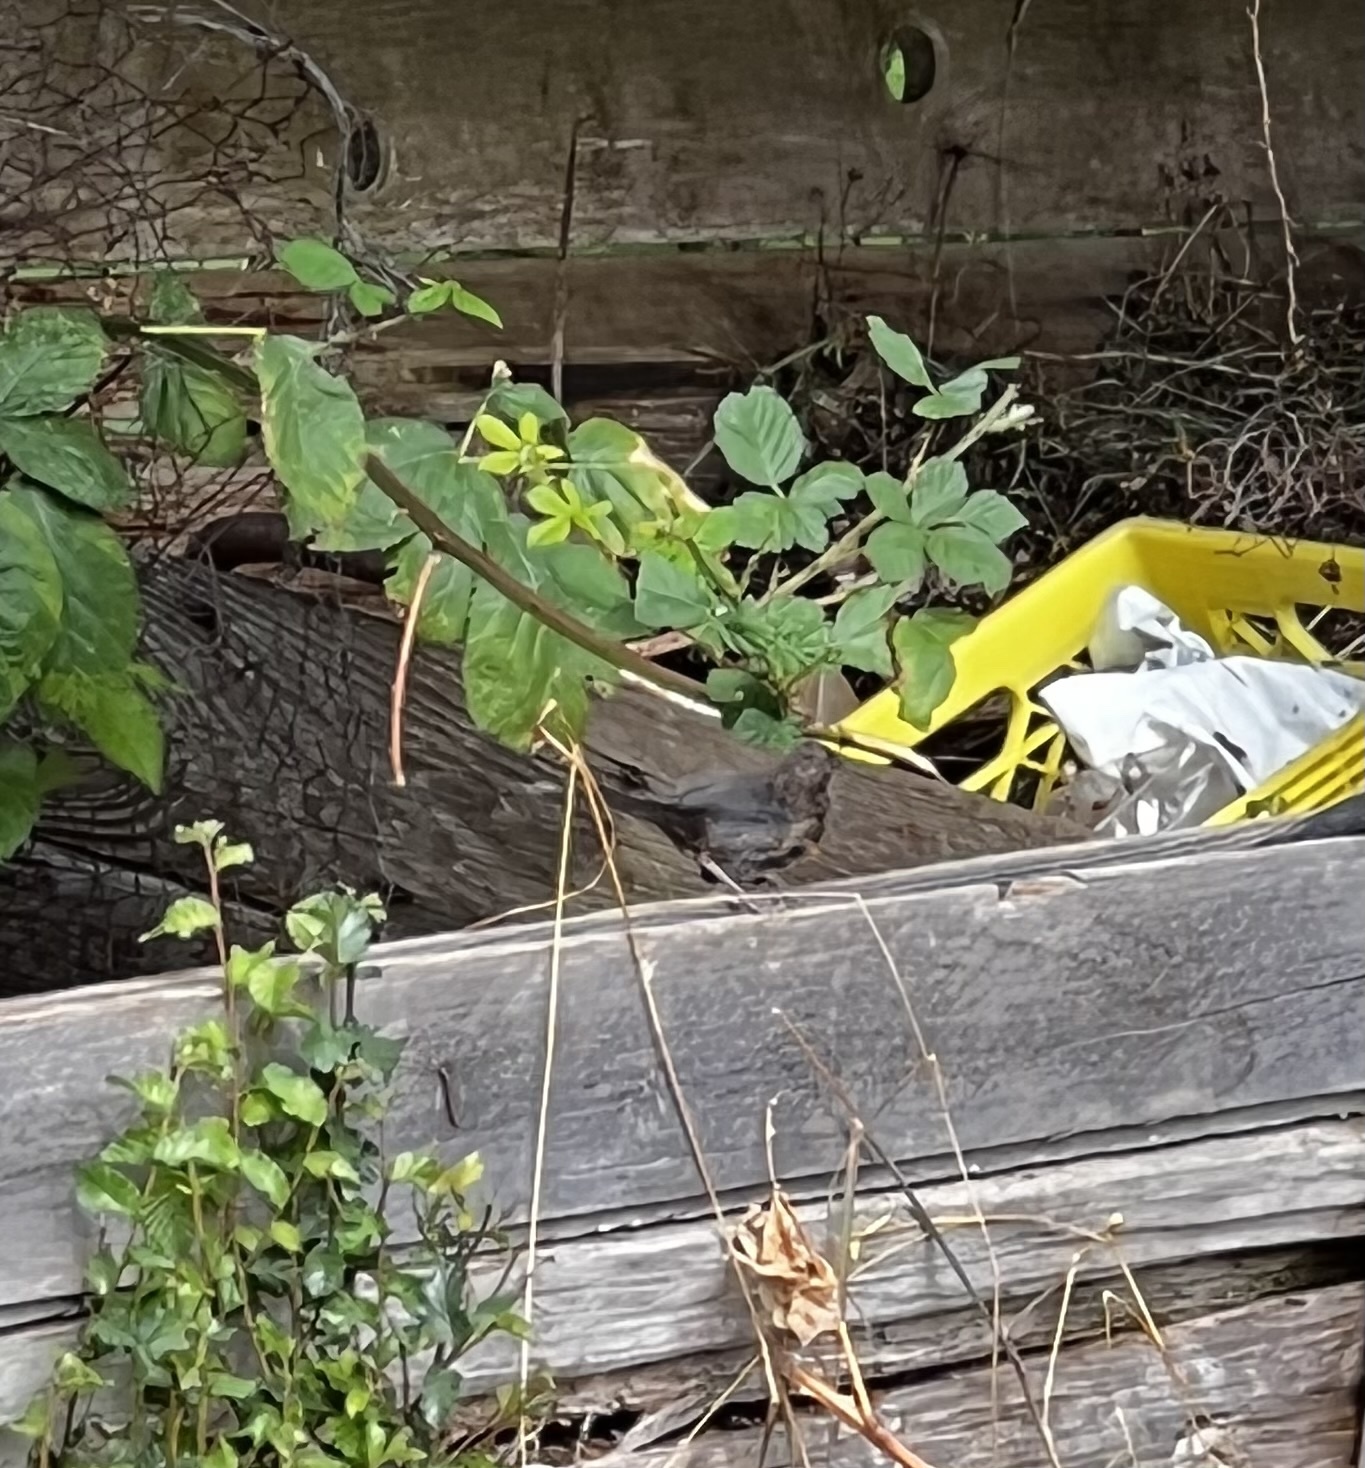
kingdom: Animalia
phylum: Chordata
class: Aves
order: Passeriformes
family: Passerellidae
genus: Pipilo
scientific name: Pipilo maculatus
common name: Spotted towhee
